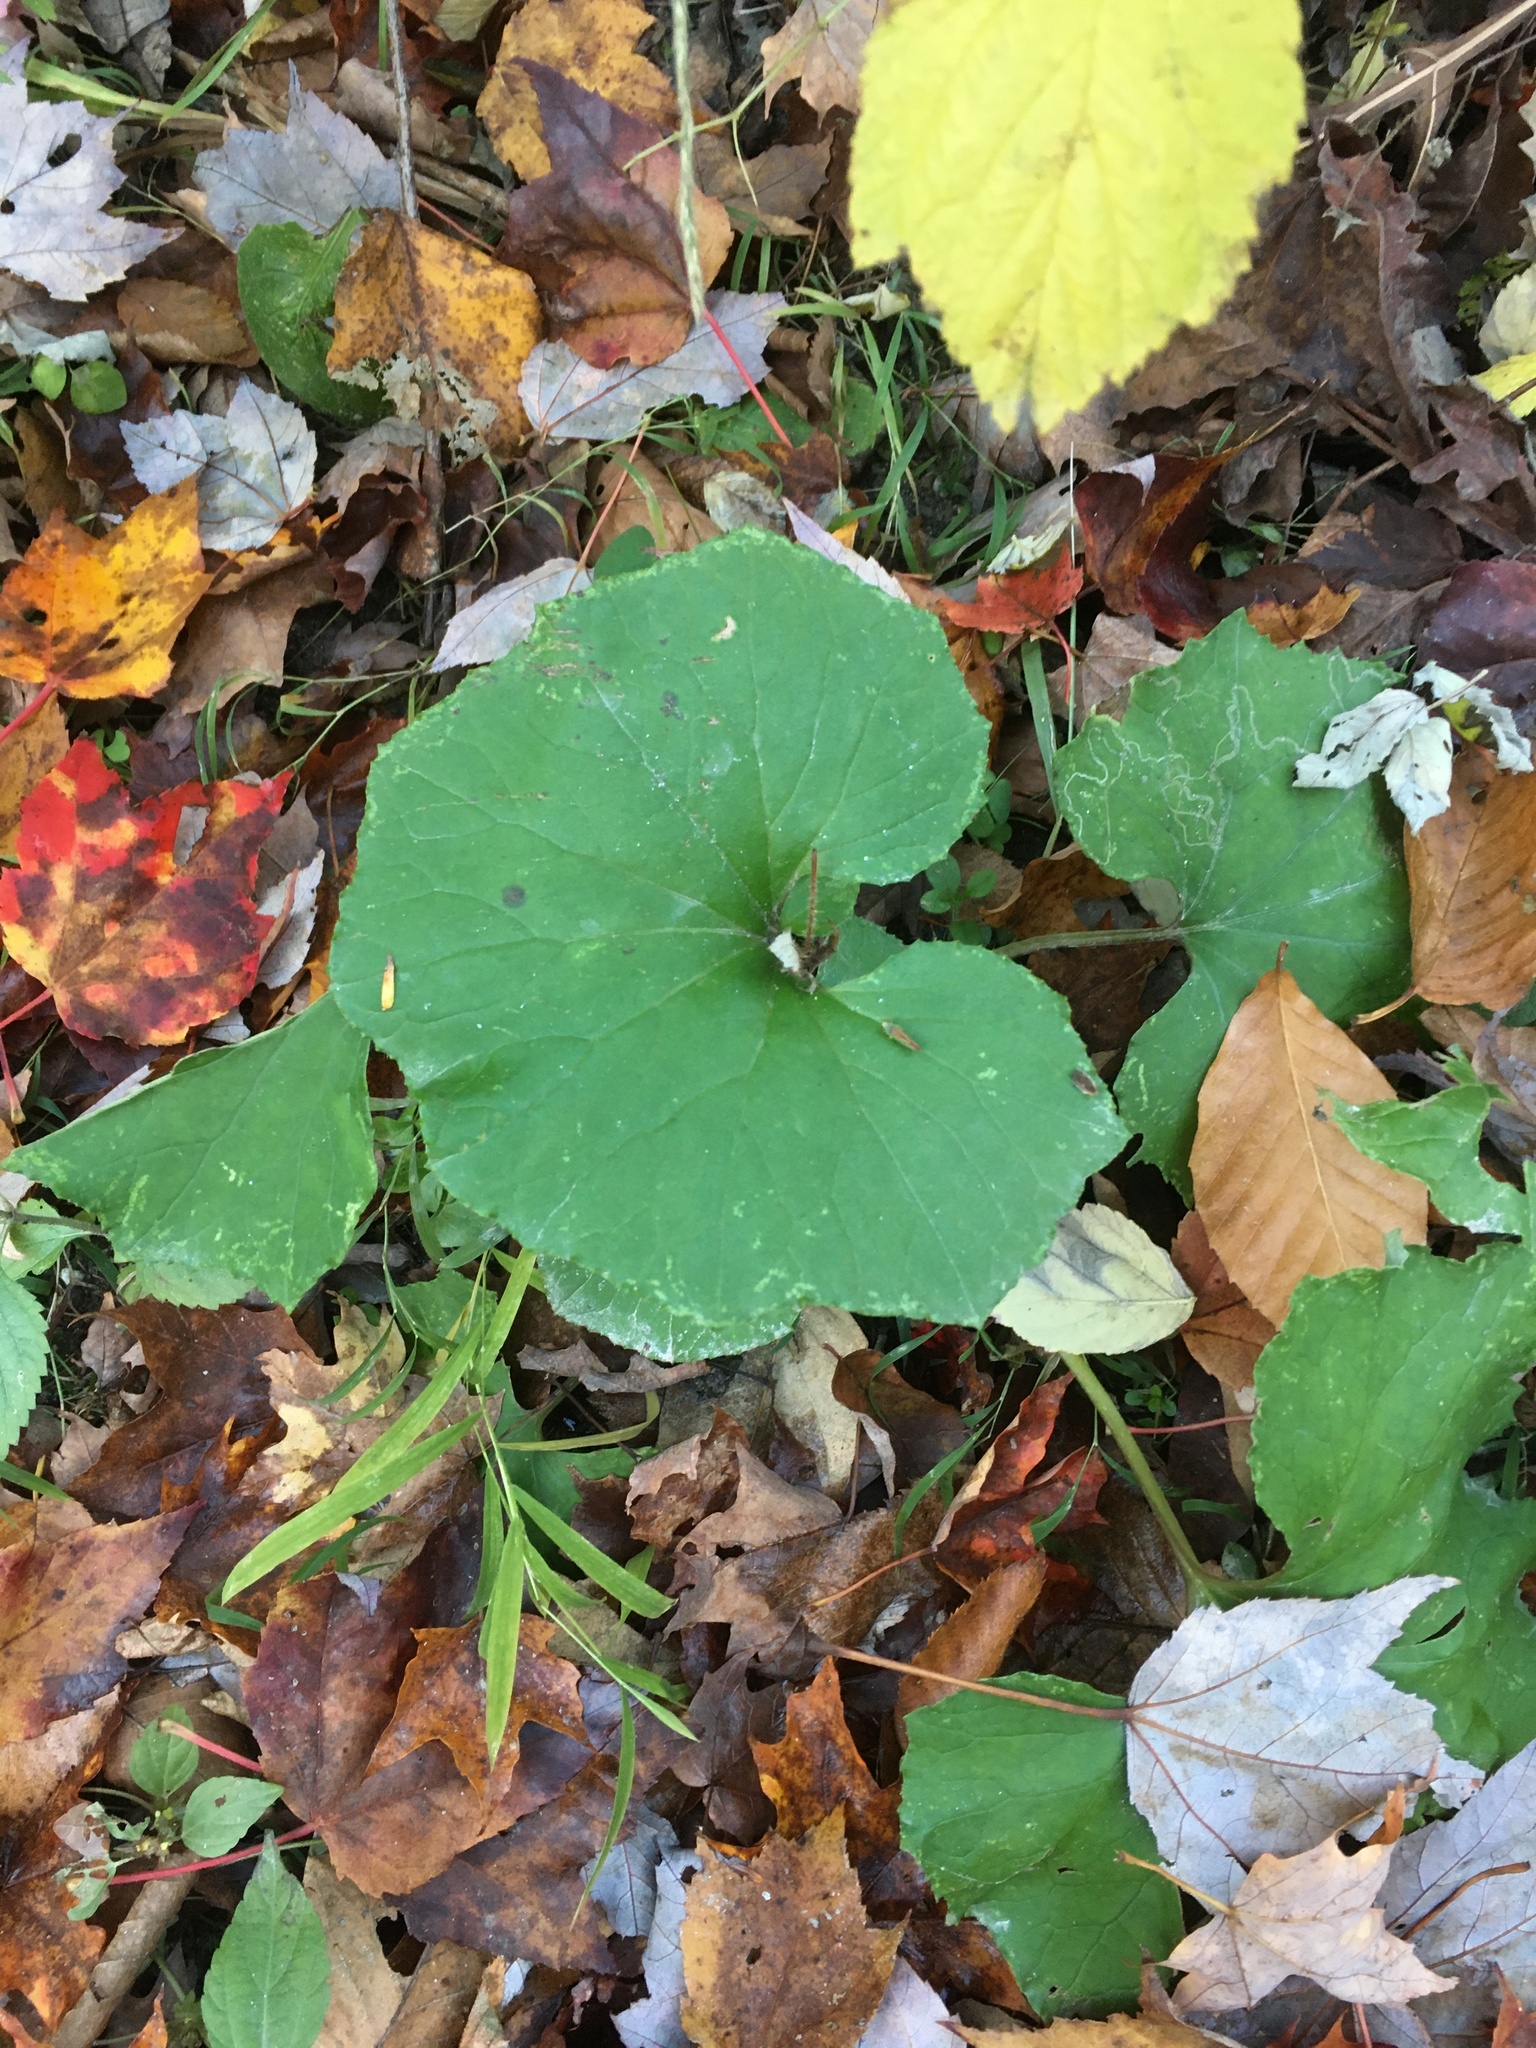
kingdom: Plantae
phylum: Tracheophyta
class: Magnoliopsida
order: Asterales
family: Asteraceae
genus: Tussilago
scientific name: Tussilago farfara
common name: Coltsfoot
